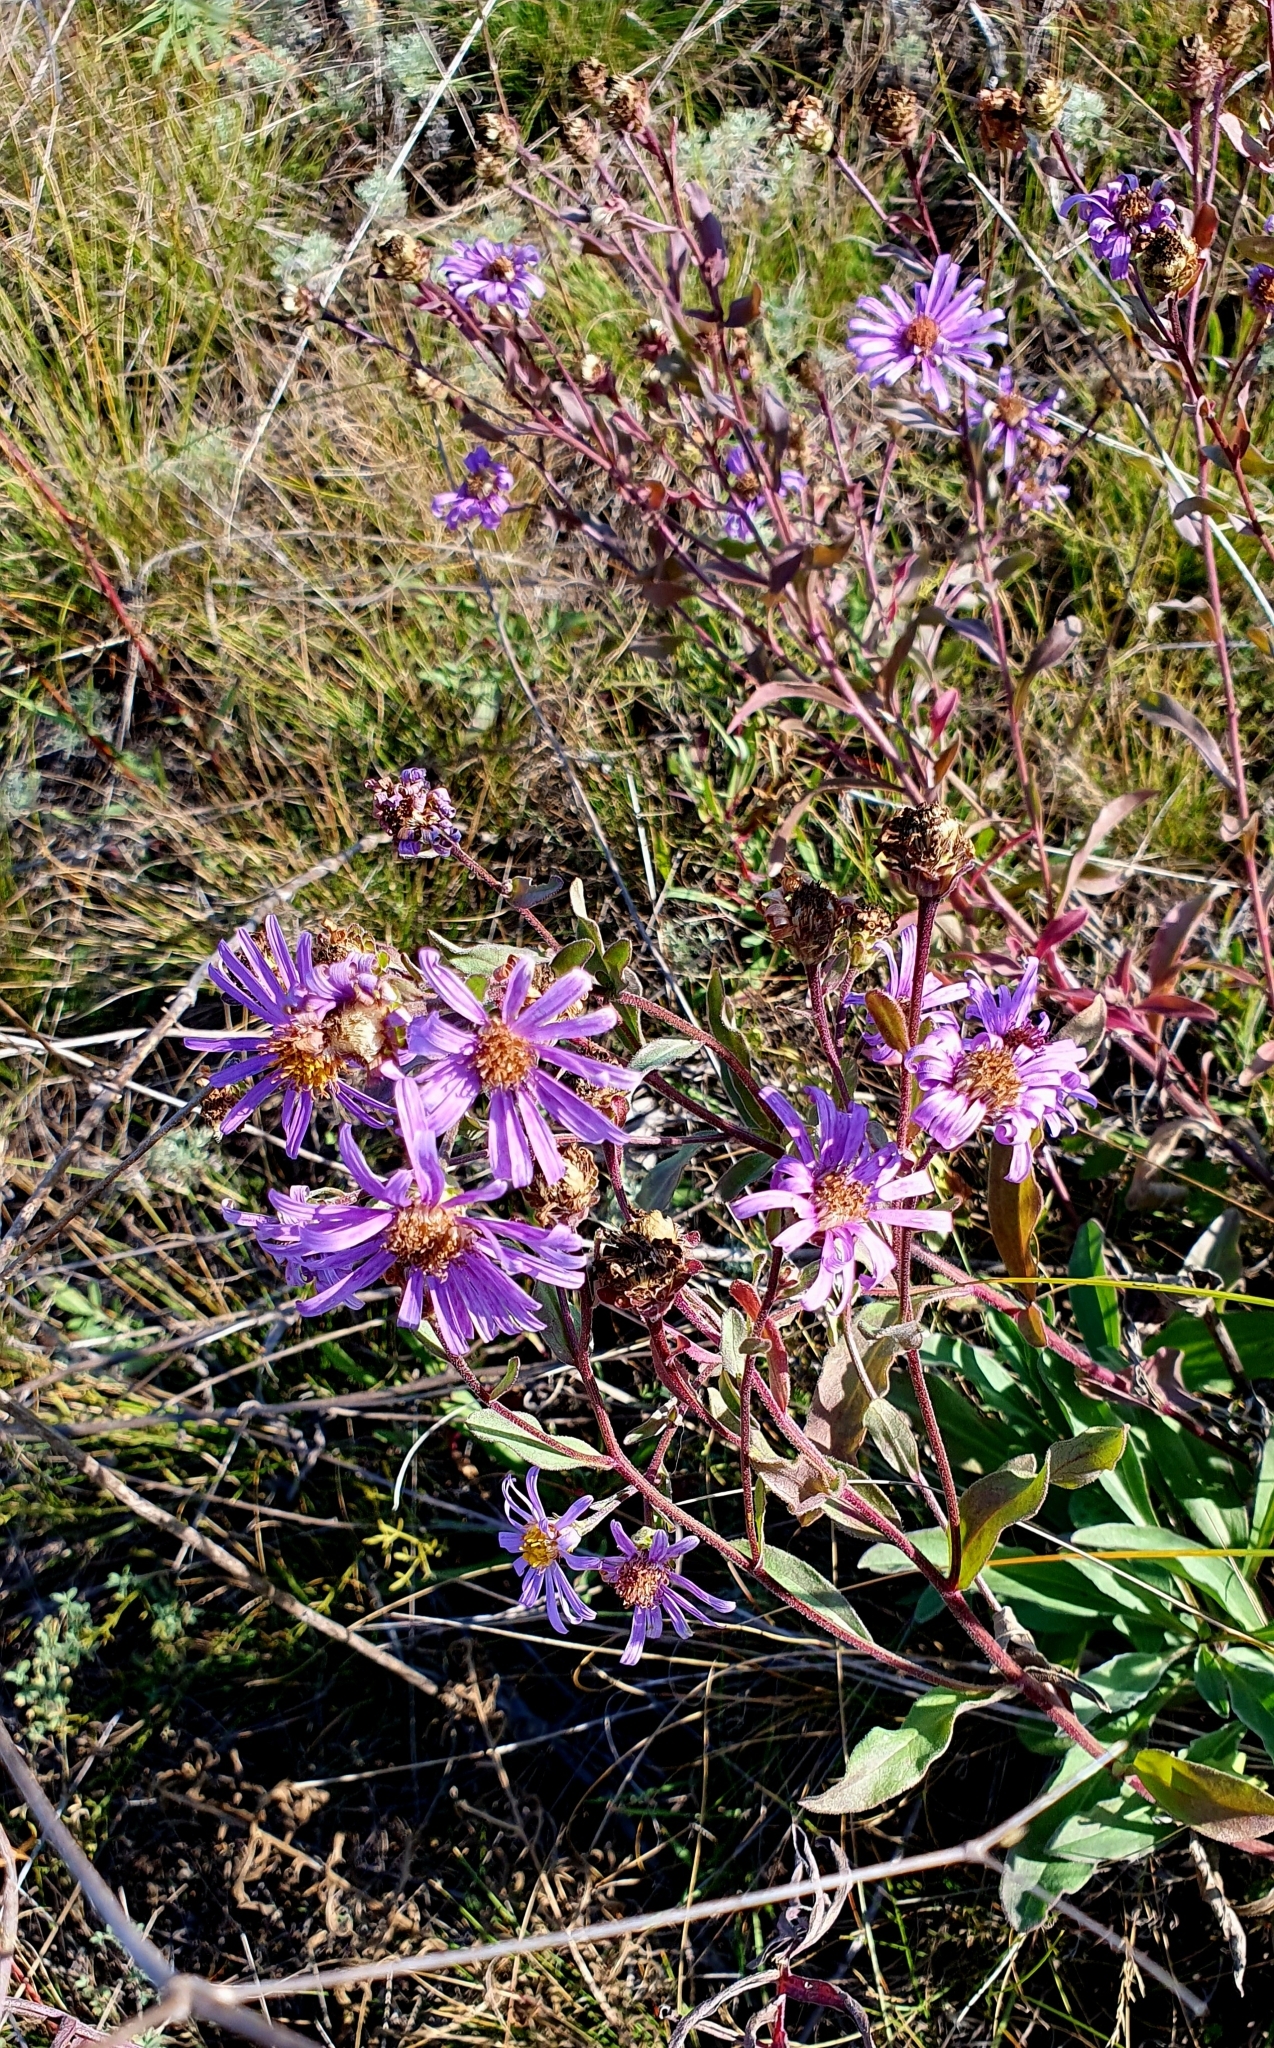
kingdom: Plantae
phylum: Tracheophyta
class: Magnoliopsida
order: Asterales
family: Asteraceae
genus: Aster
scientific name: Aster amellus
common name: European michaelmas daisy
